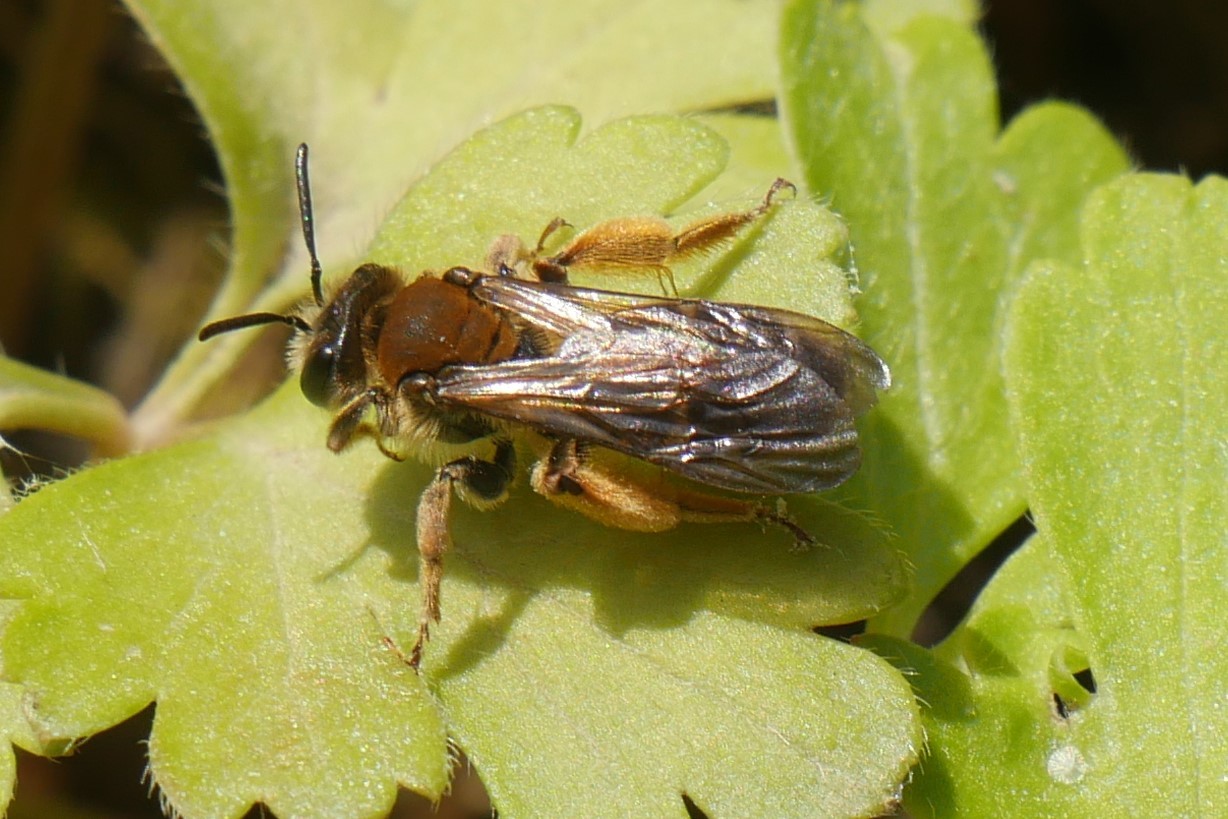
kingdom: Animalia
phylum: Arthropoda
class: Insecta
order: Hymenoptera
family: Andrenidae
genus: Andrena
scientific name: Andrena curvungula
